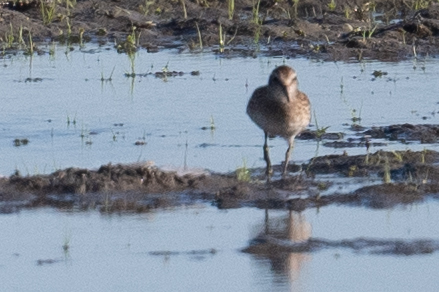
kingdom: Animalia
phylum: Chordata
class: Aves
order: Charadriiformes
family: Scolopacidae
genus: Calidris
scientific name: Calidris minutilla
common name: Least sandpiper
